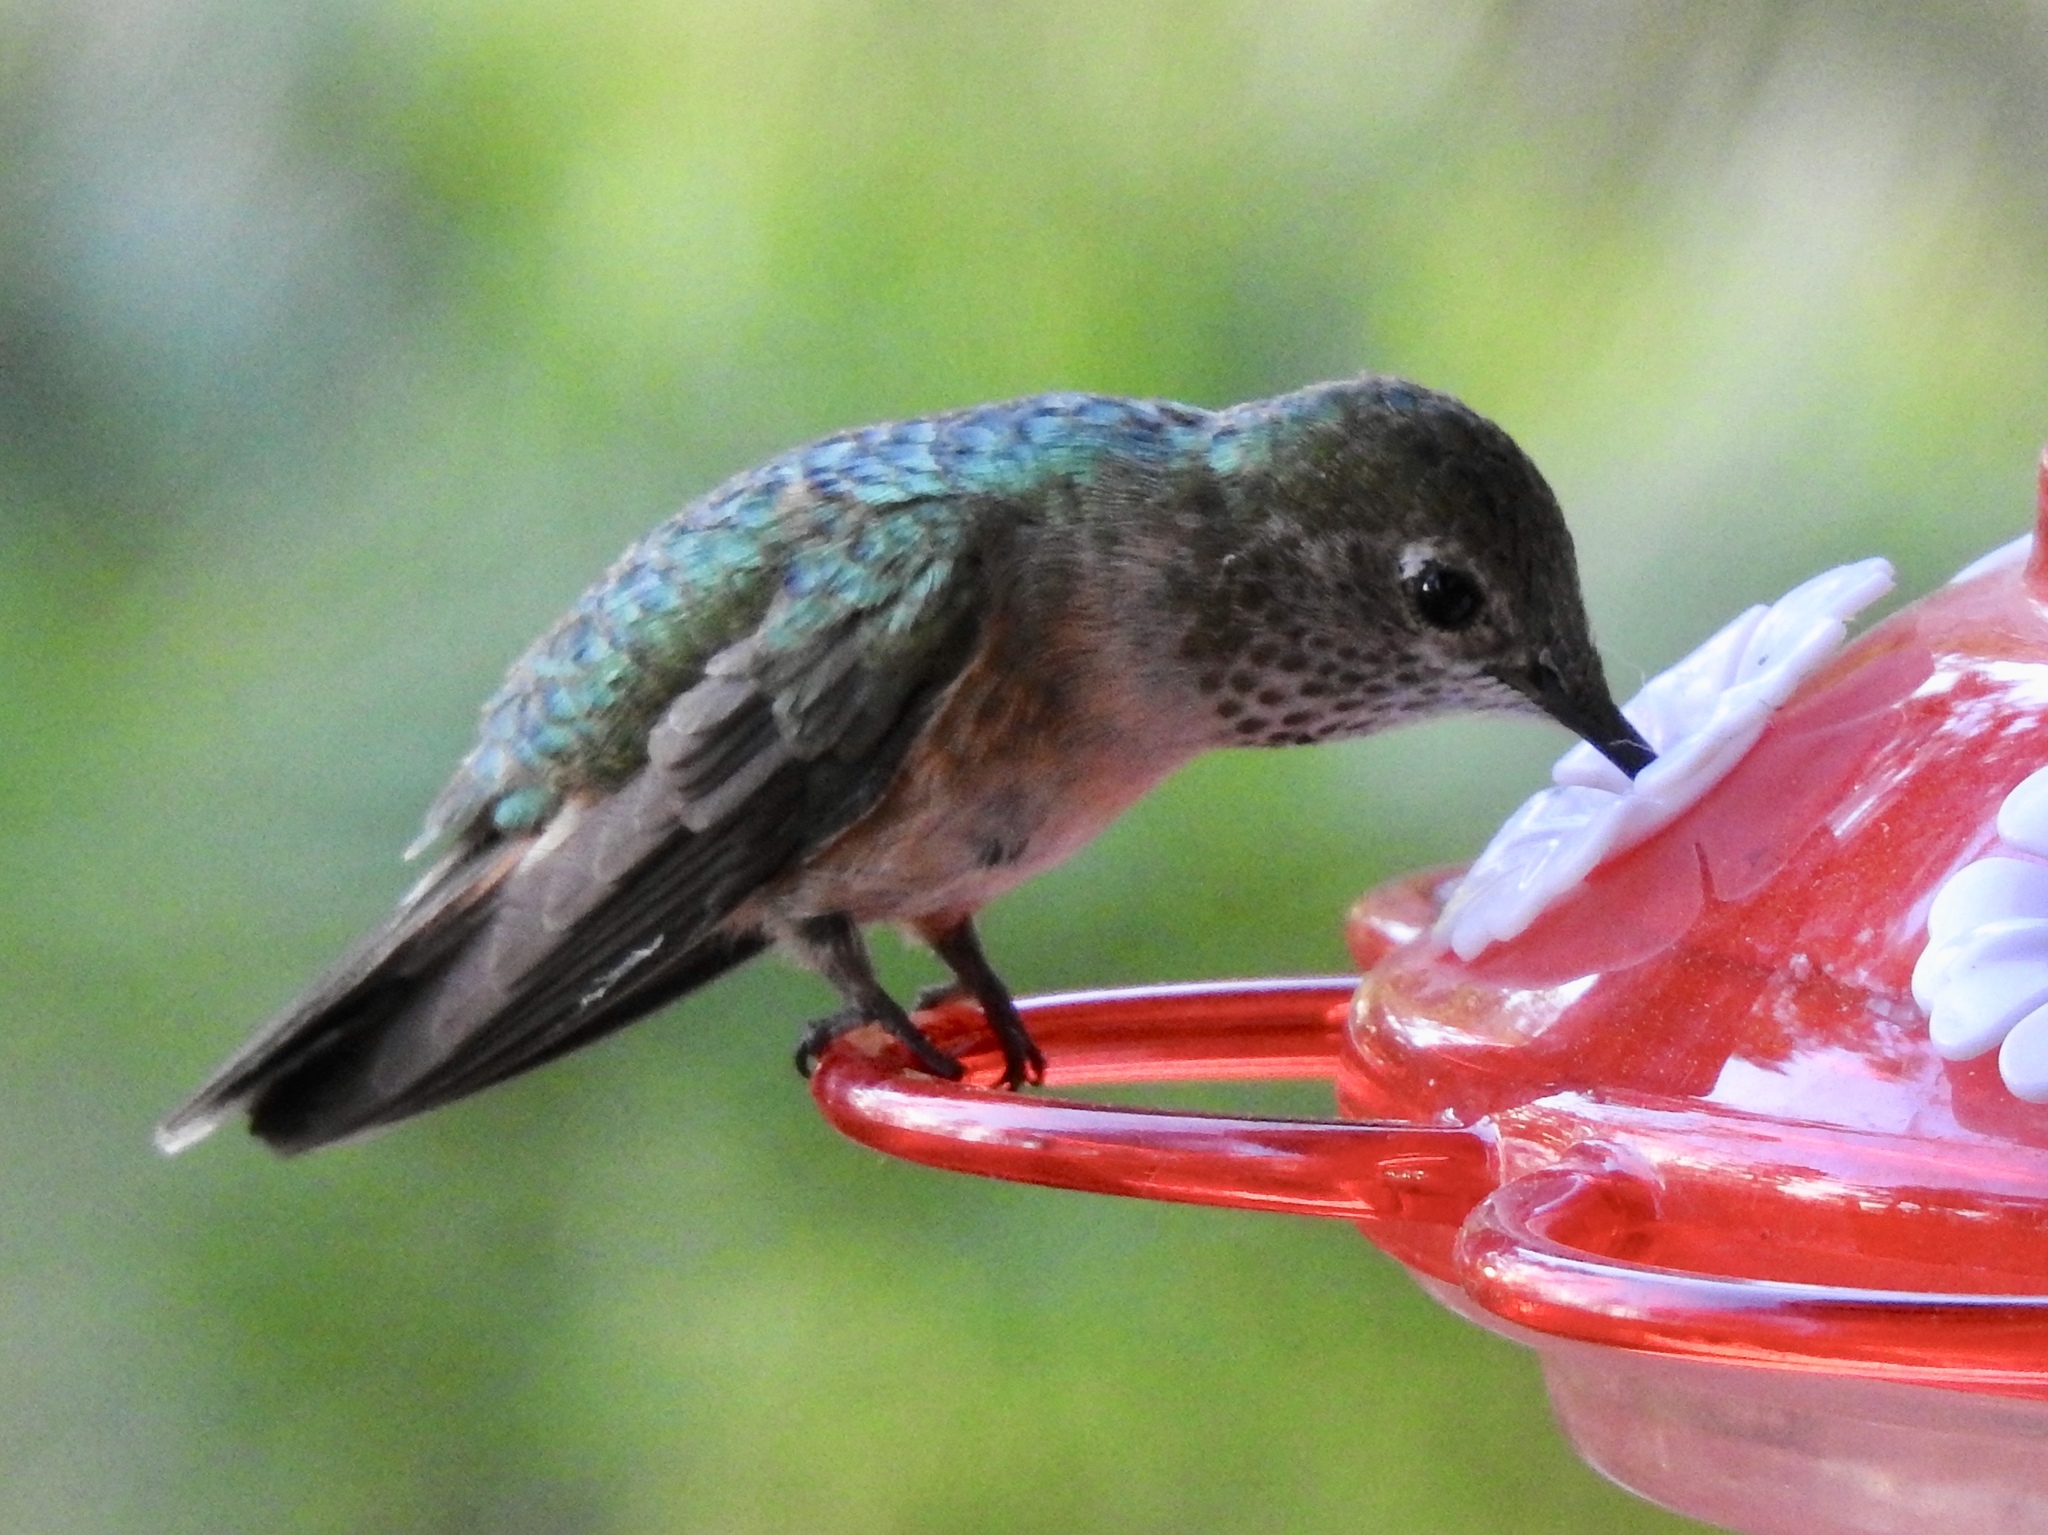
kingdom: Animalia
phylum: Chordata
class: Aves
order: Apodiformes
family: Trochilidae
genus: Selasphorus
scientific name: Selasphorus platycercus
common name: Broad-tailed hummingbird
